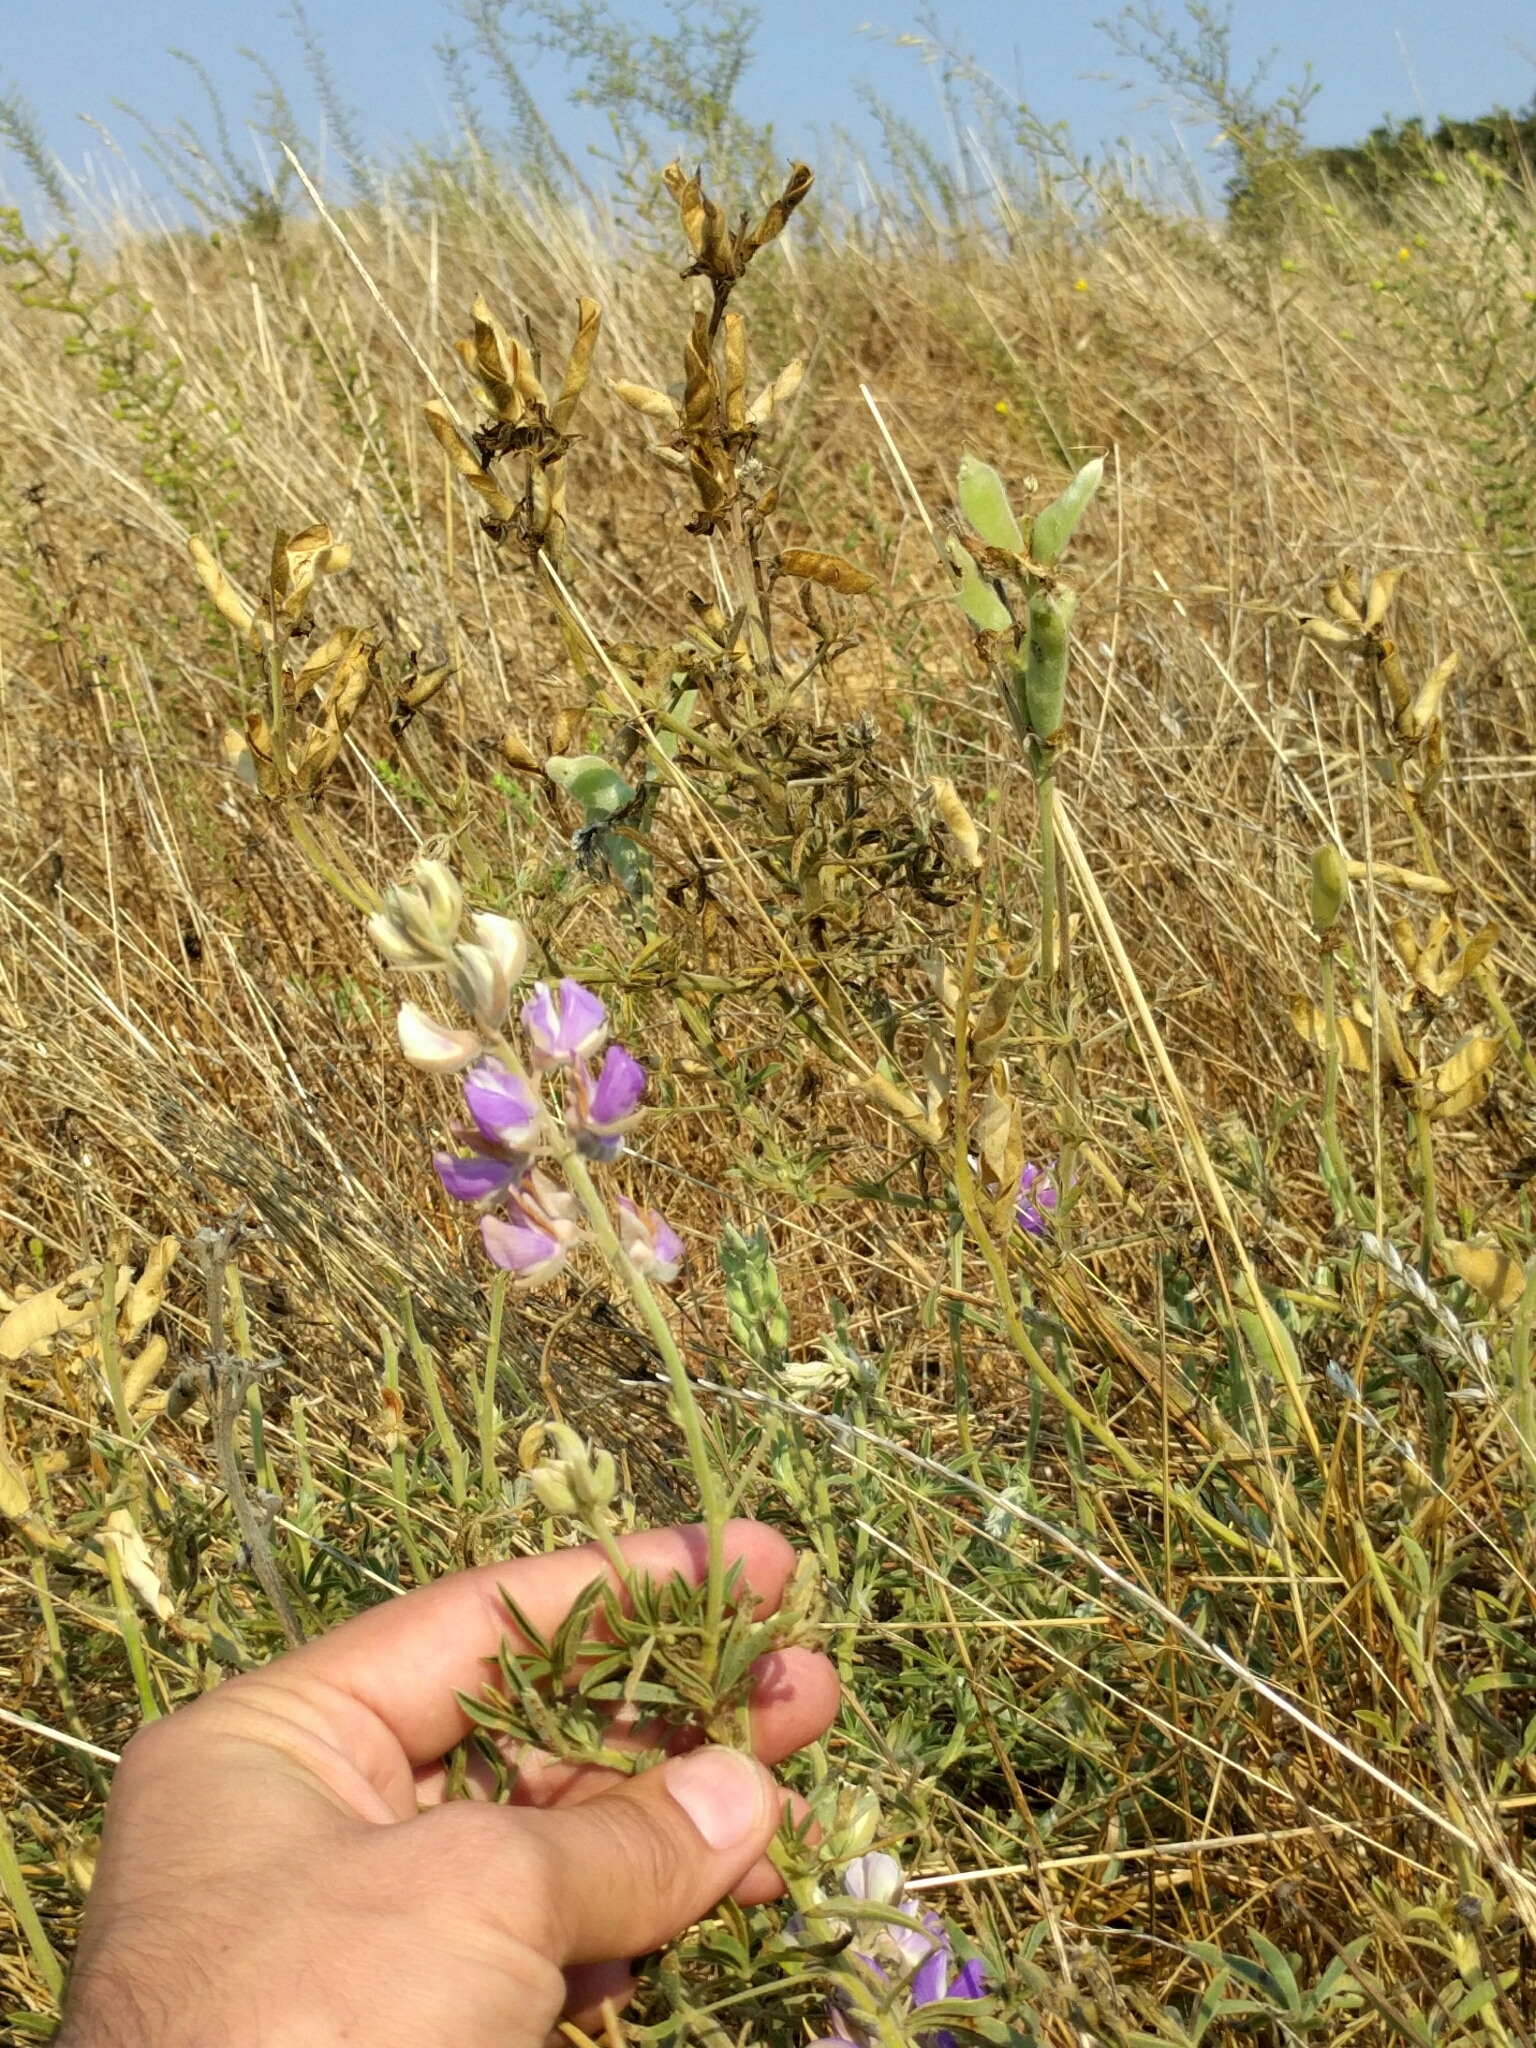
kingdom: Plantae
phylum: Tracheophyta
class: Magnoliopsida
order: Fabales
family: Fabaceae
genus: Lupinus
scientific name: Lupinus formosus
